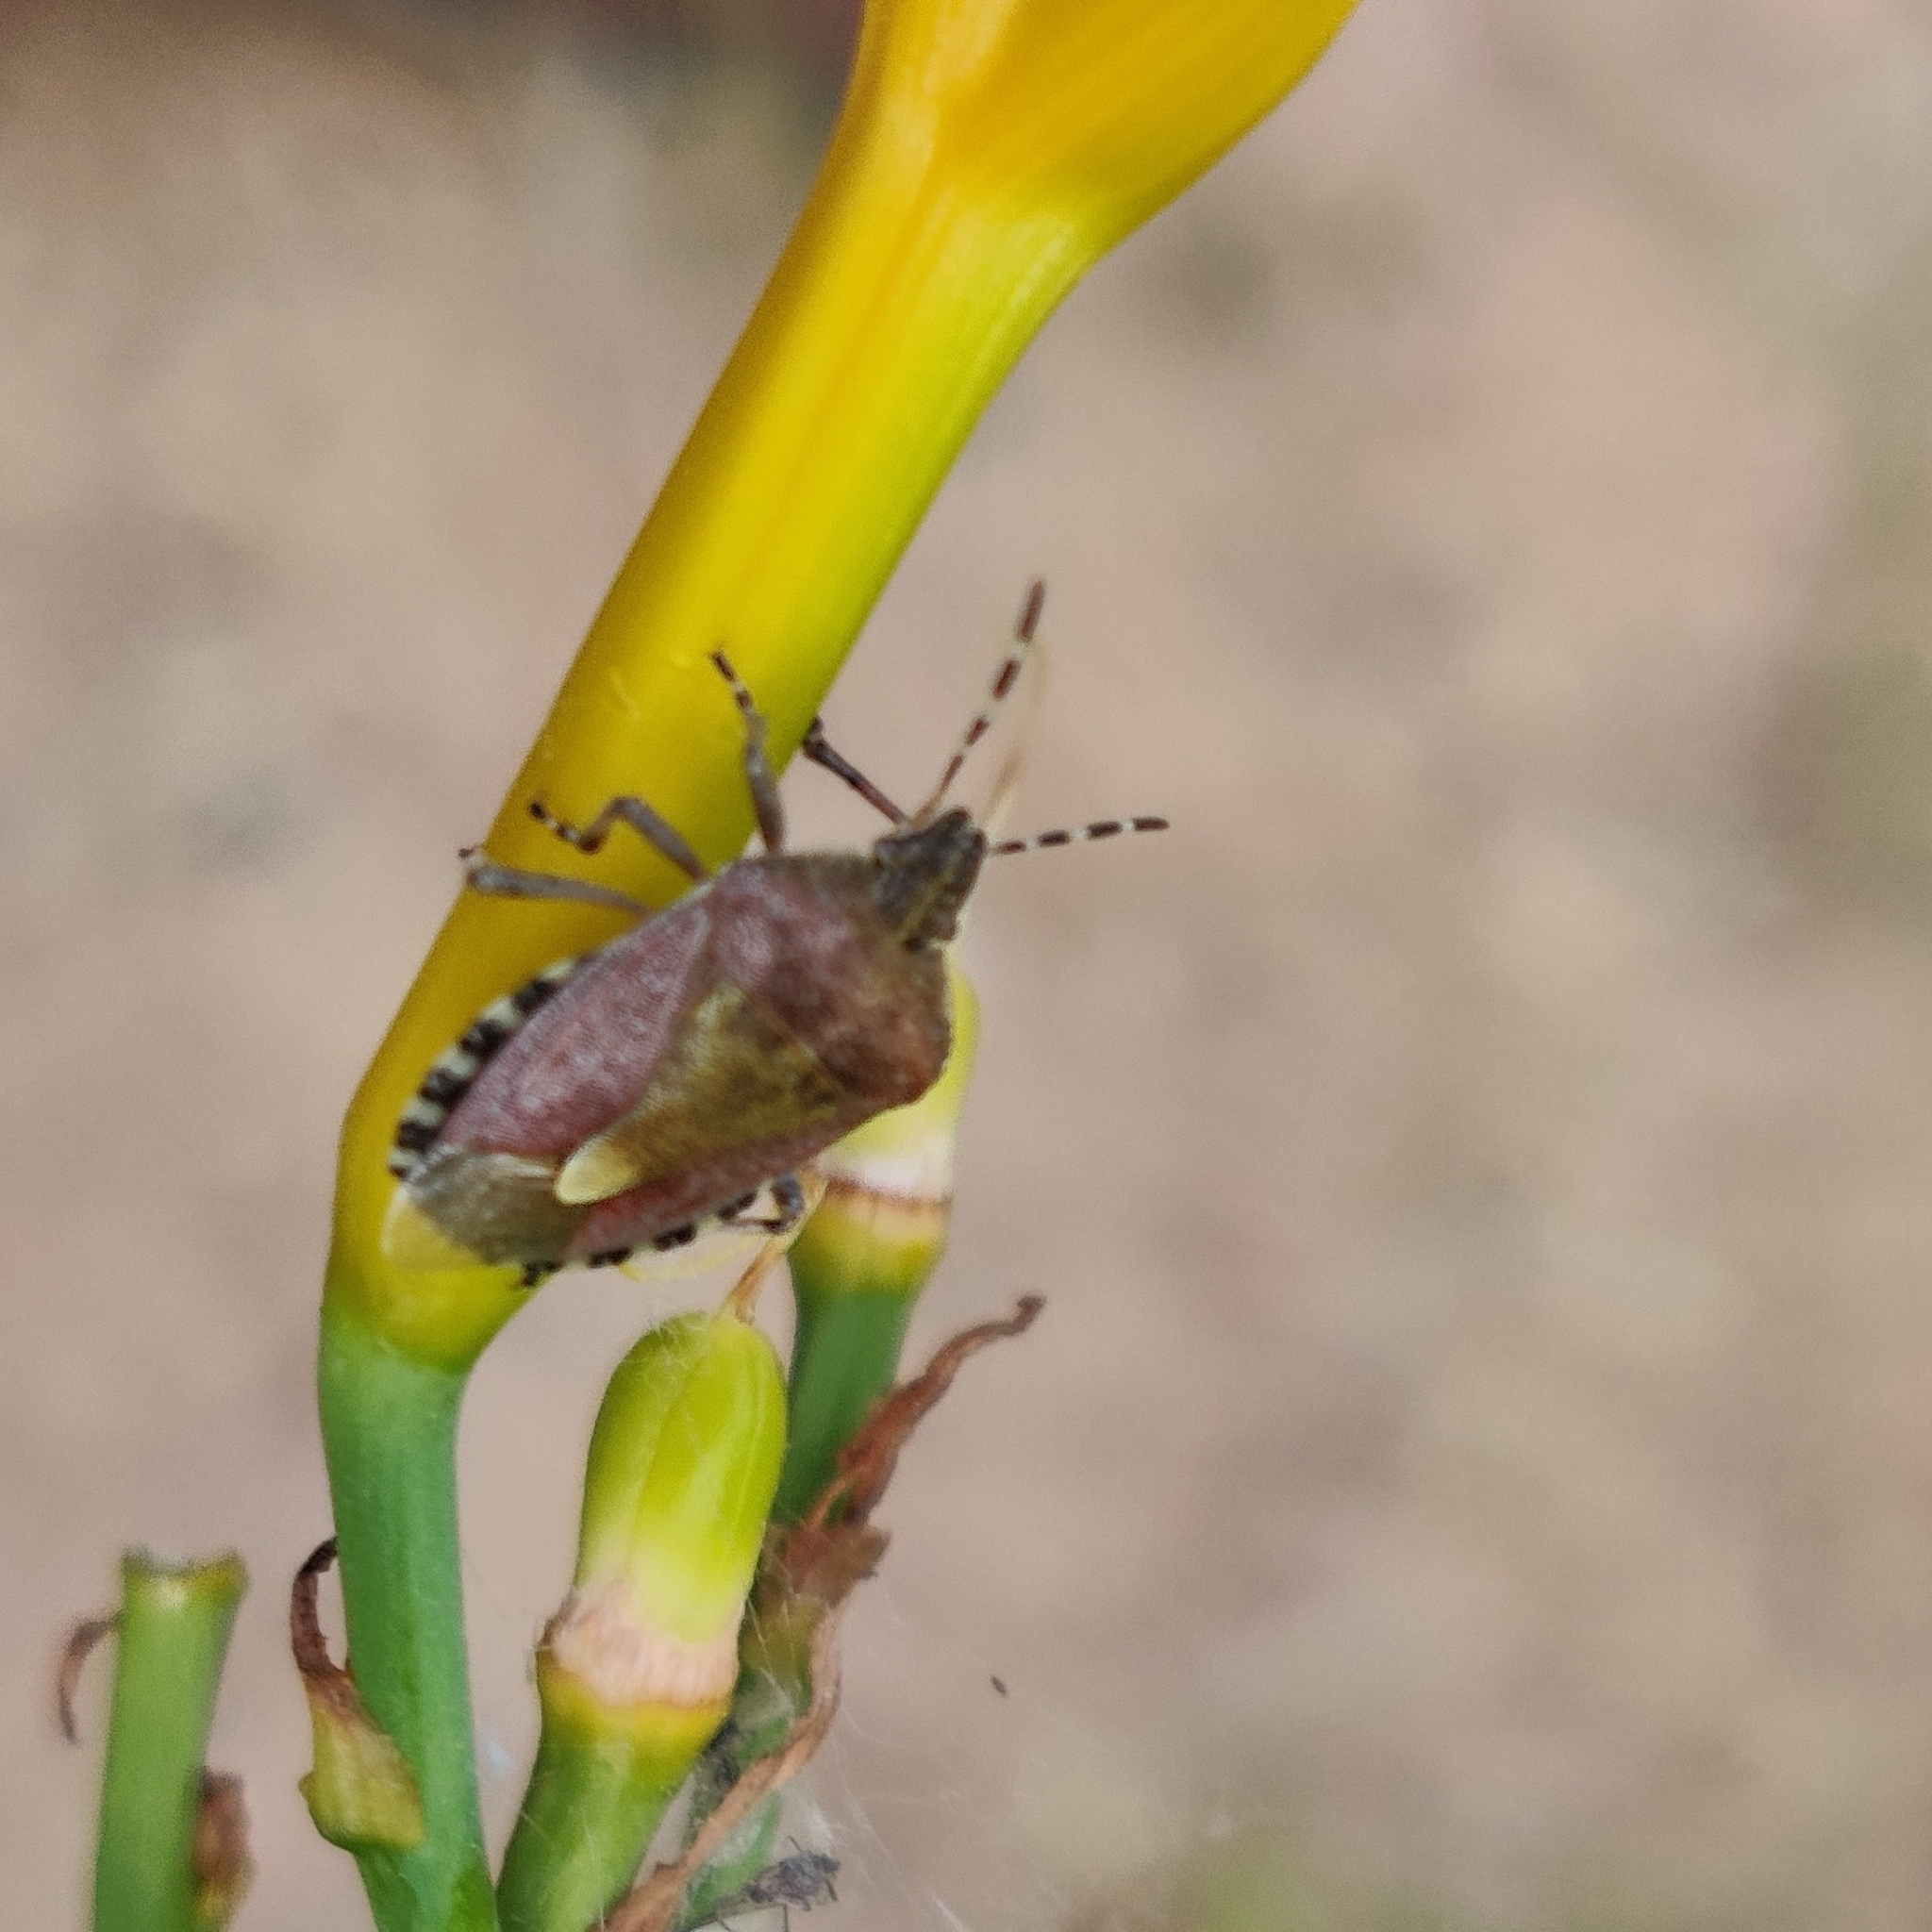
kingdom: Animalia
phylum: Arthropoda
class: Insecta
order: Hemiptera
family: Pentatomidae
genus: Dolycoris
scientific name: Dolycoris baccarum
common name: Sloe bug
